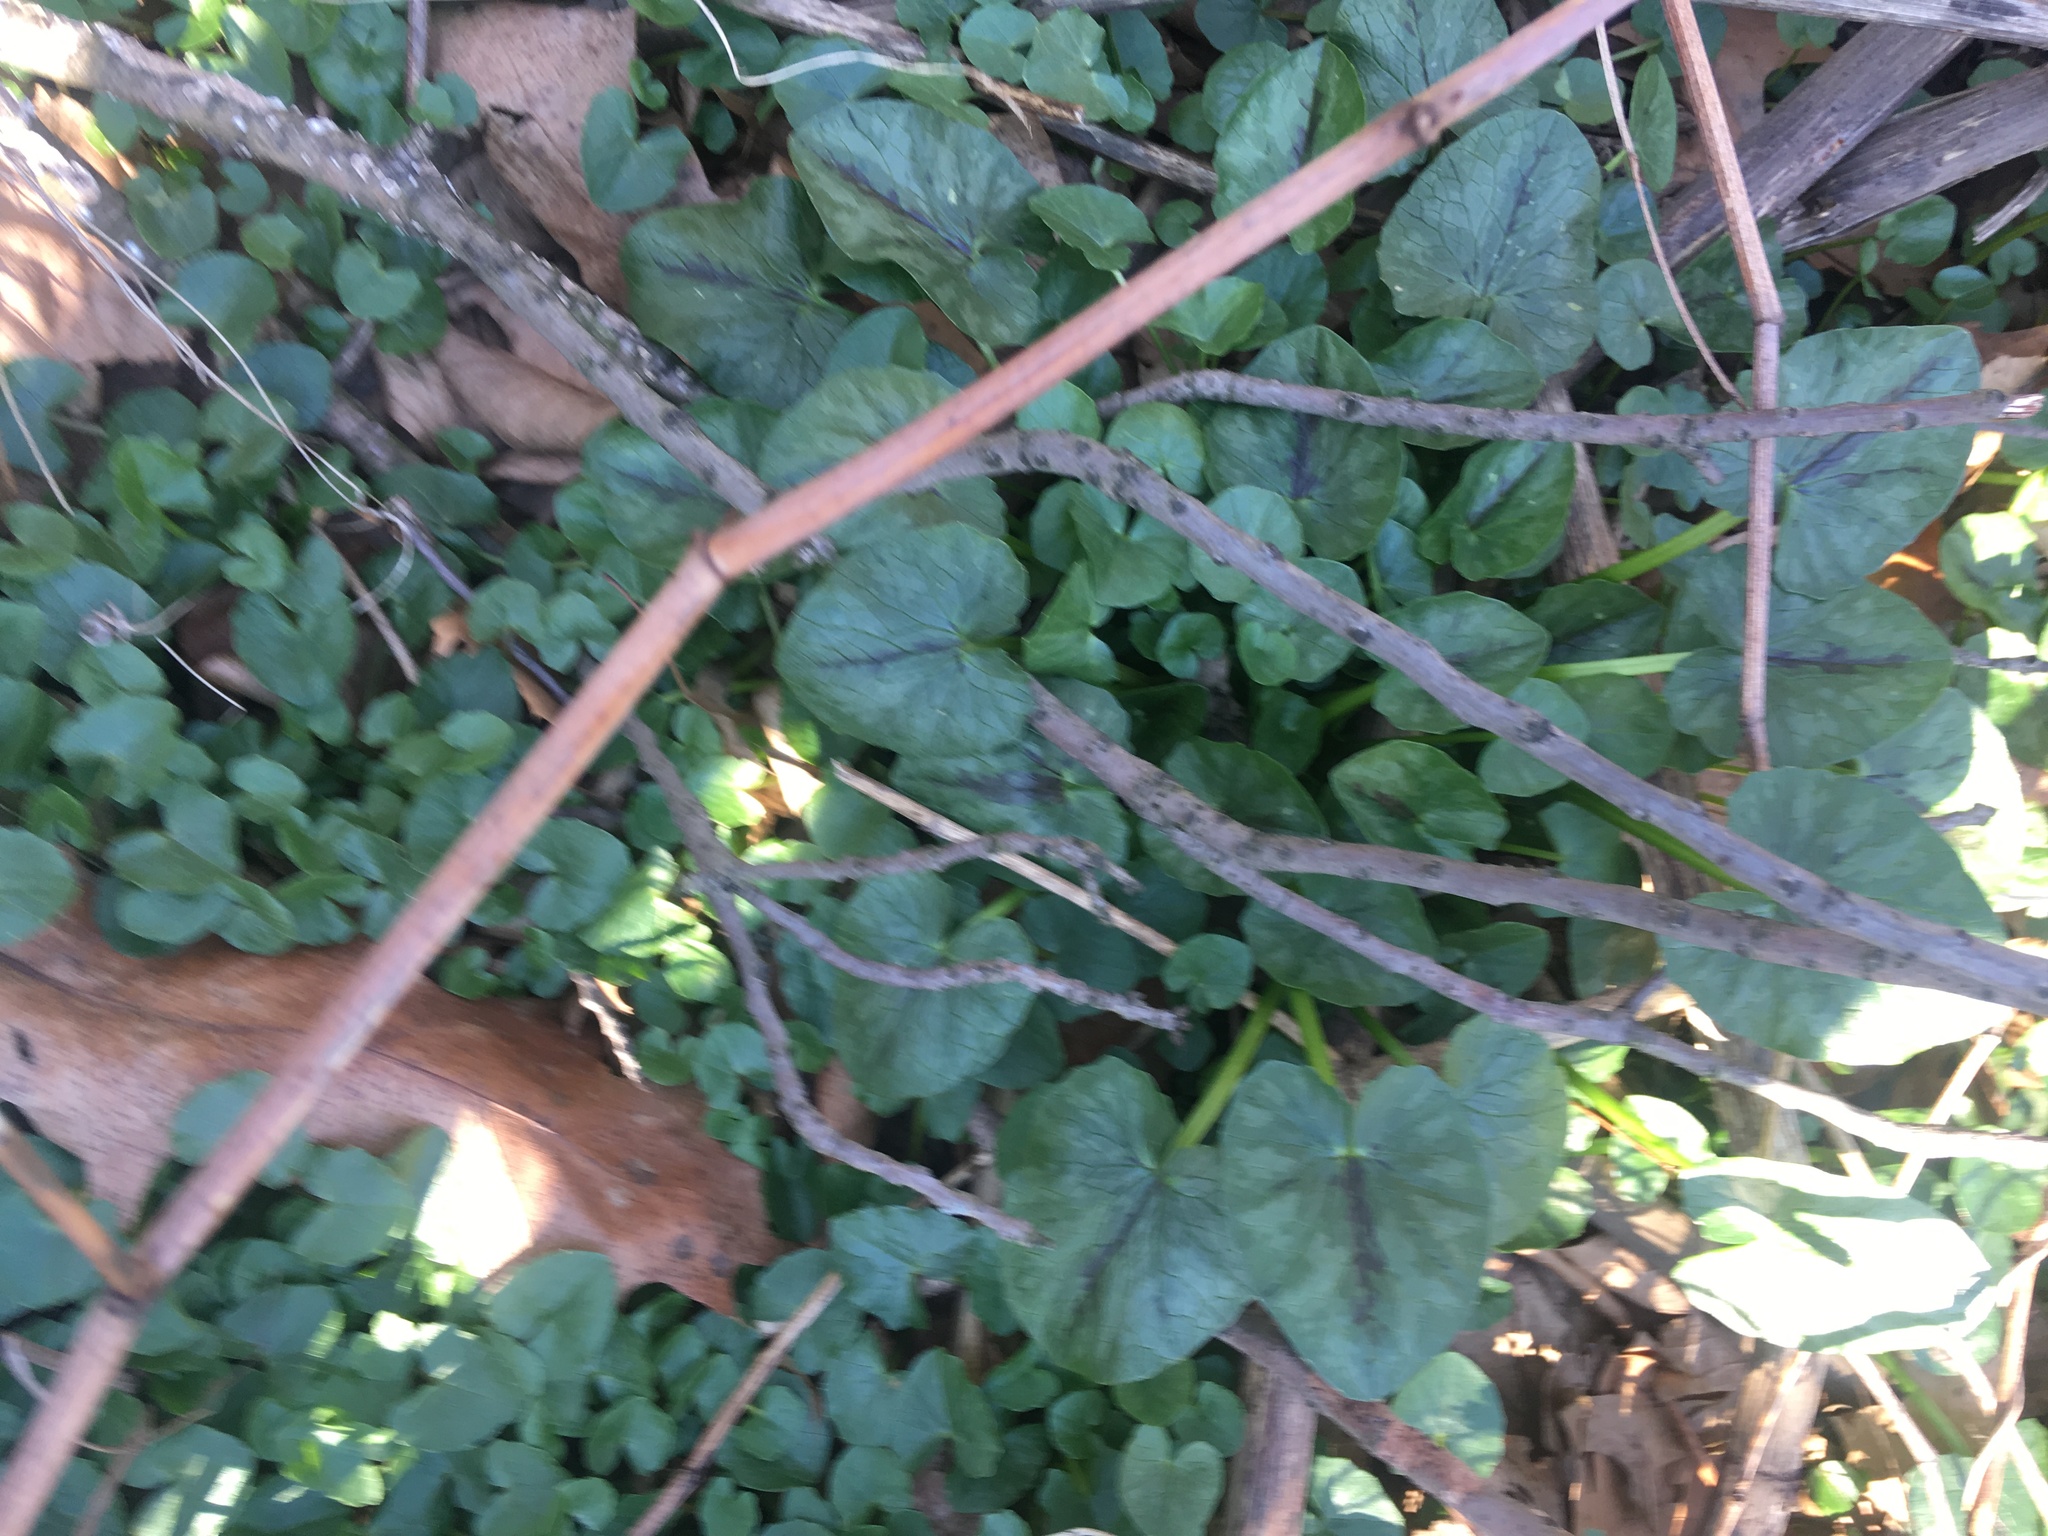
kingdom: Plantae
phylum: Tracheophyta
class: Magnoliopsida
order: Ranunculales
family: Ranunculaceae
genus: Ficaria
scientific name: Ficaria verna
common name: Lesser celandine
